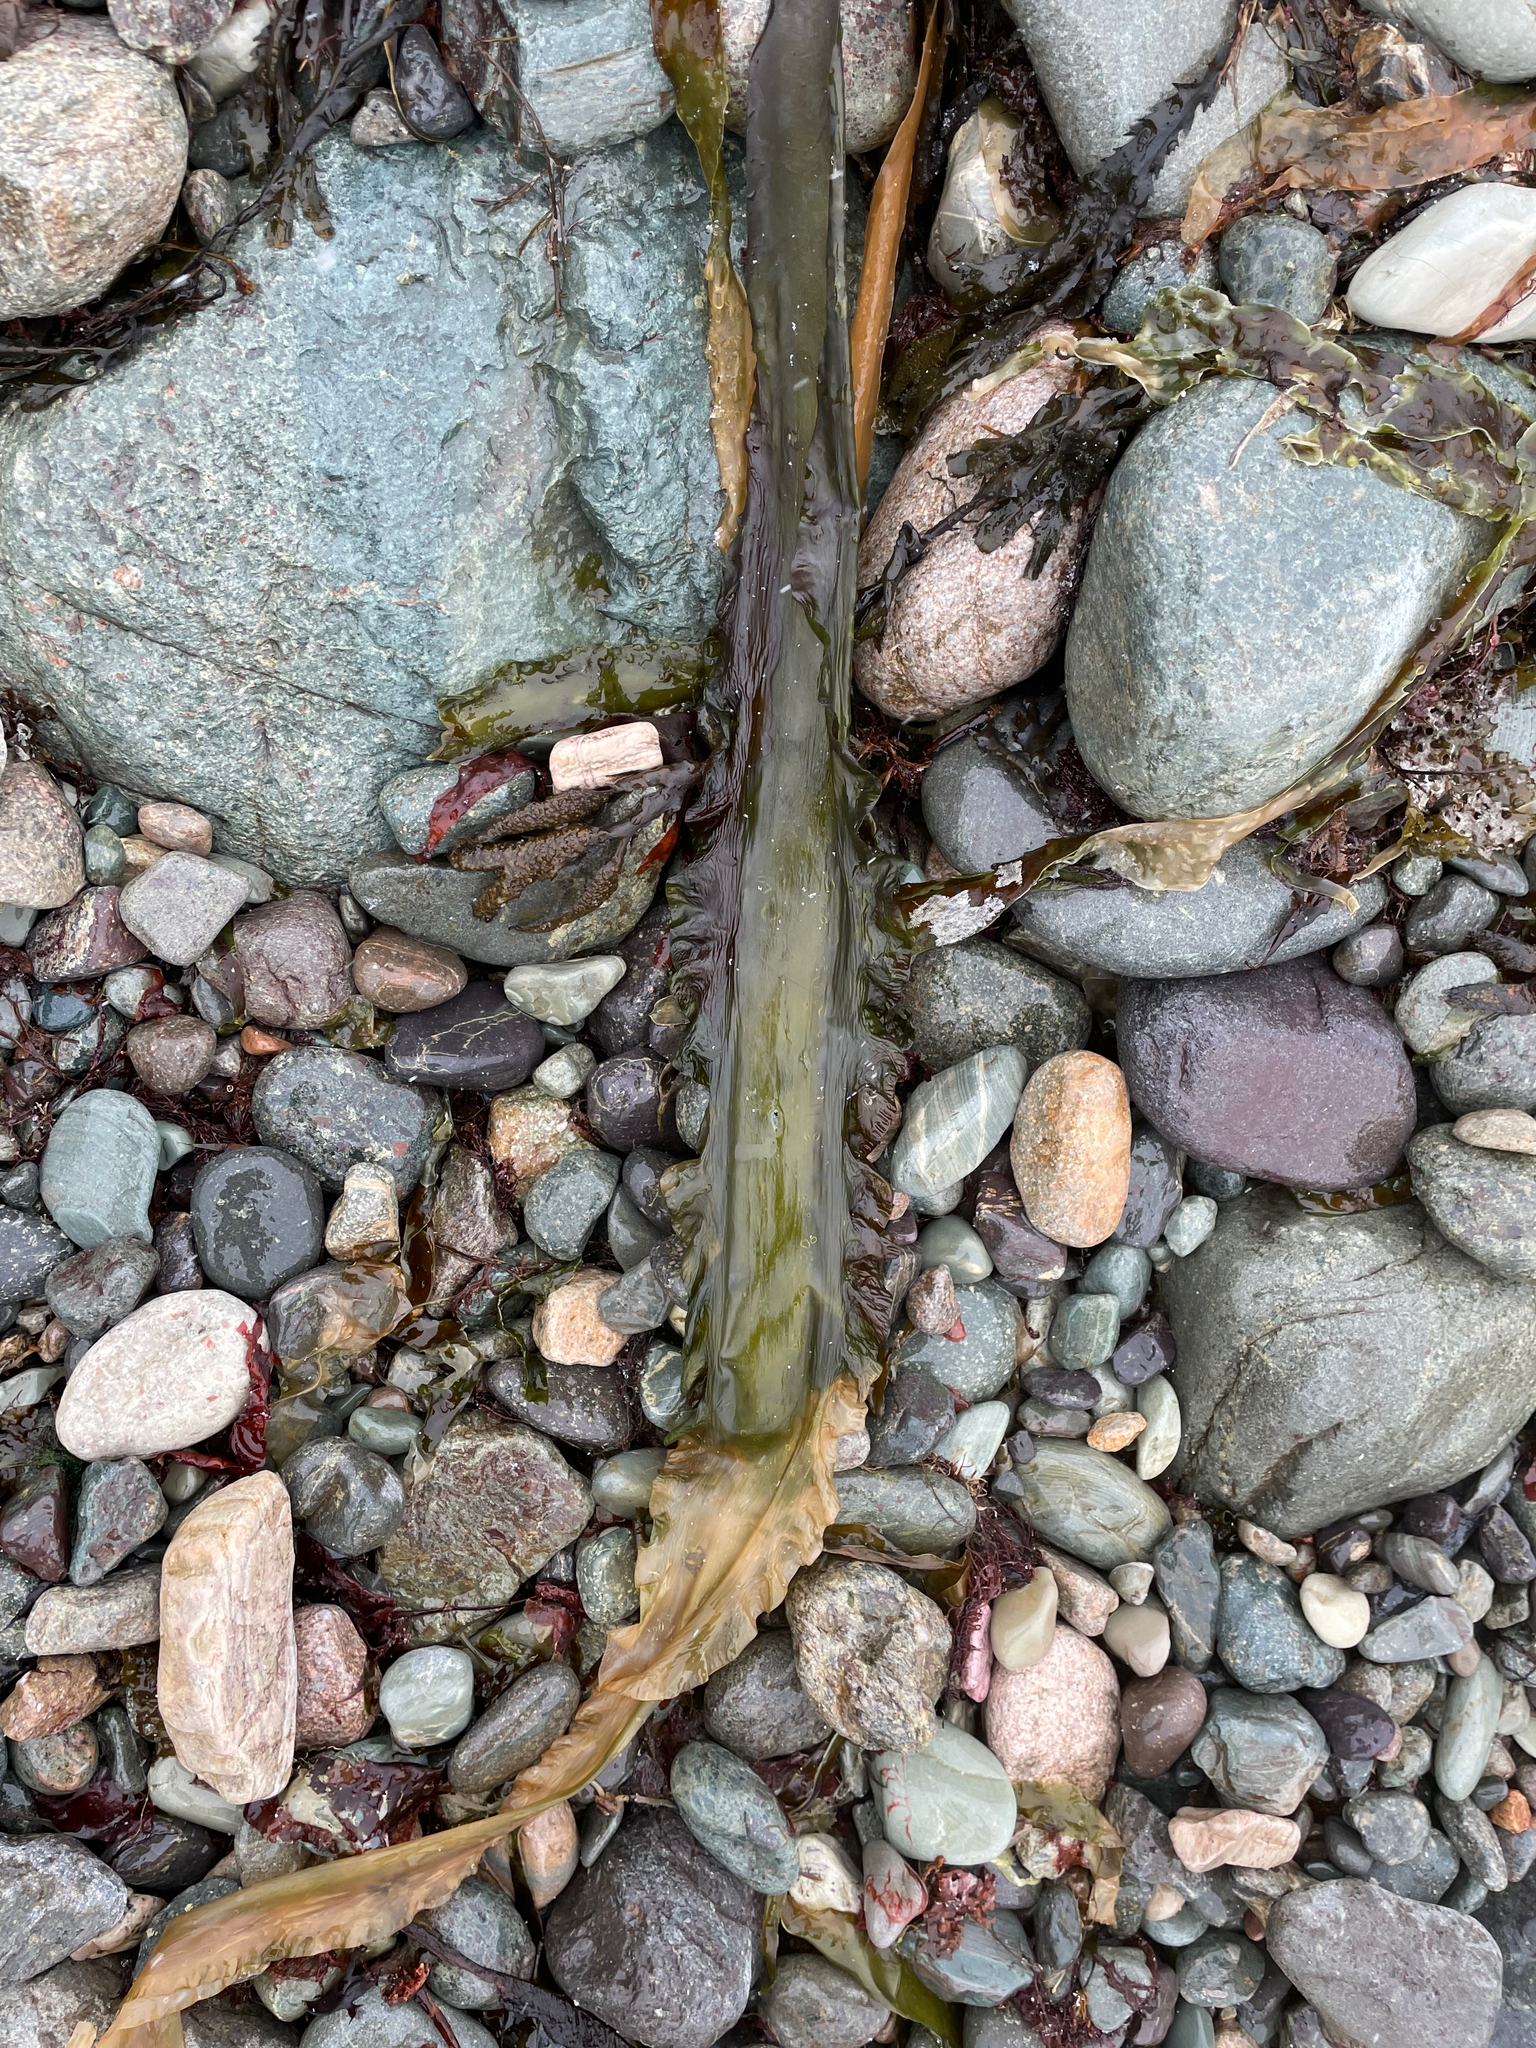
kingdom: Chromista
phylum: Ochrophyta
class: Phaeophyceae
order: Laminariales
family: Laminariaceae
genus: Saccharina
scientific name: Saccharina latissima
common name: Poor man's weather glass
